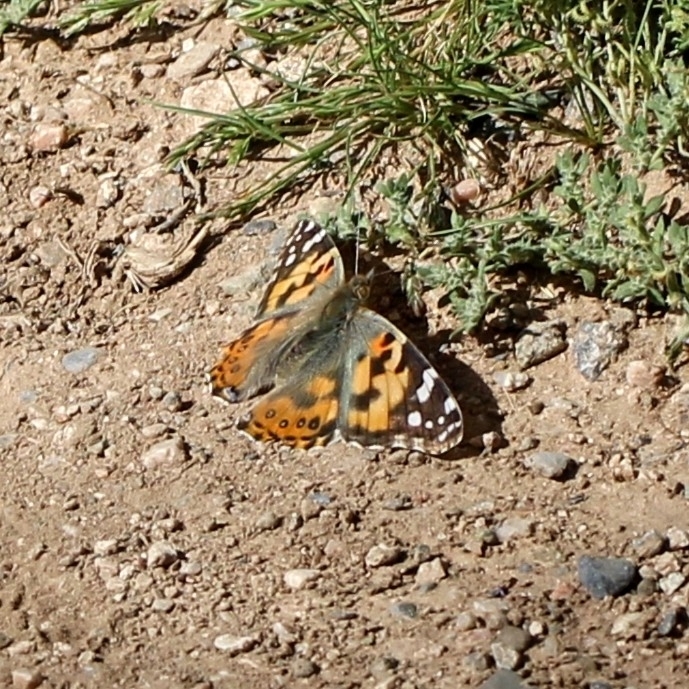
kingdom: Animalia
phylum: Arthropoda
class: Insecta
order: Lepidoptera
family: Nymphalidae
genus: Vanessa
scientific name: Vanessa cardui
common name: Painted lady
